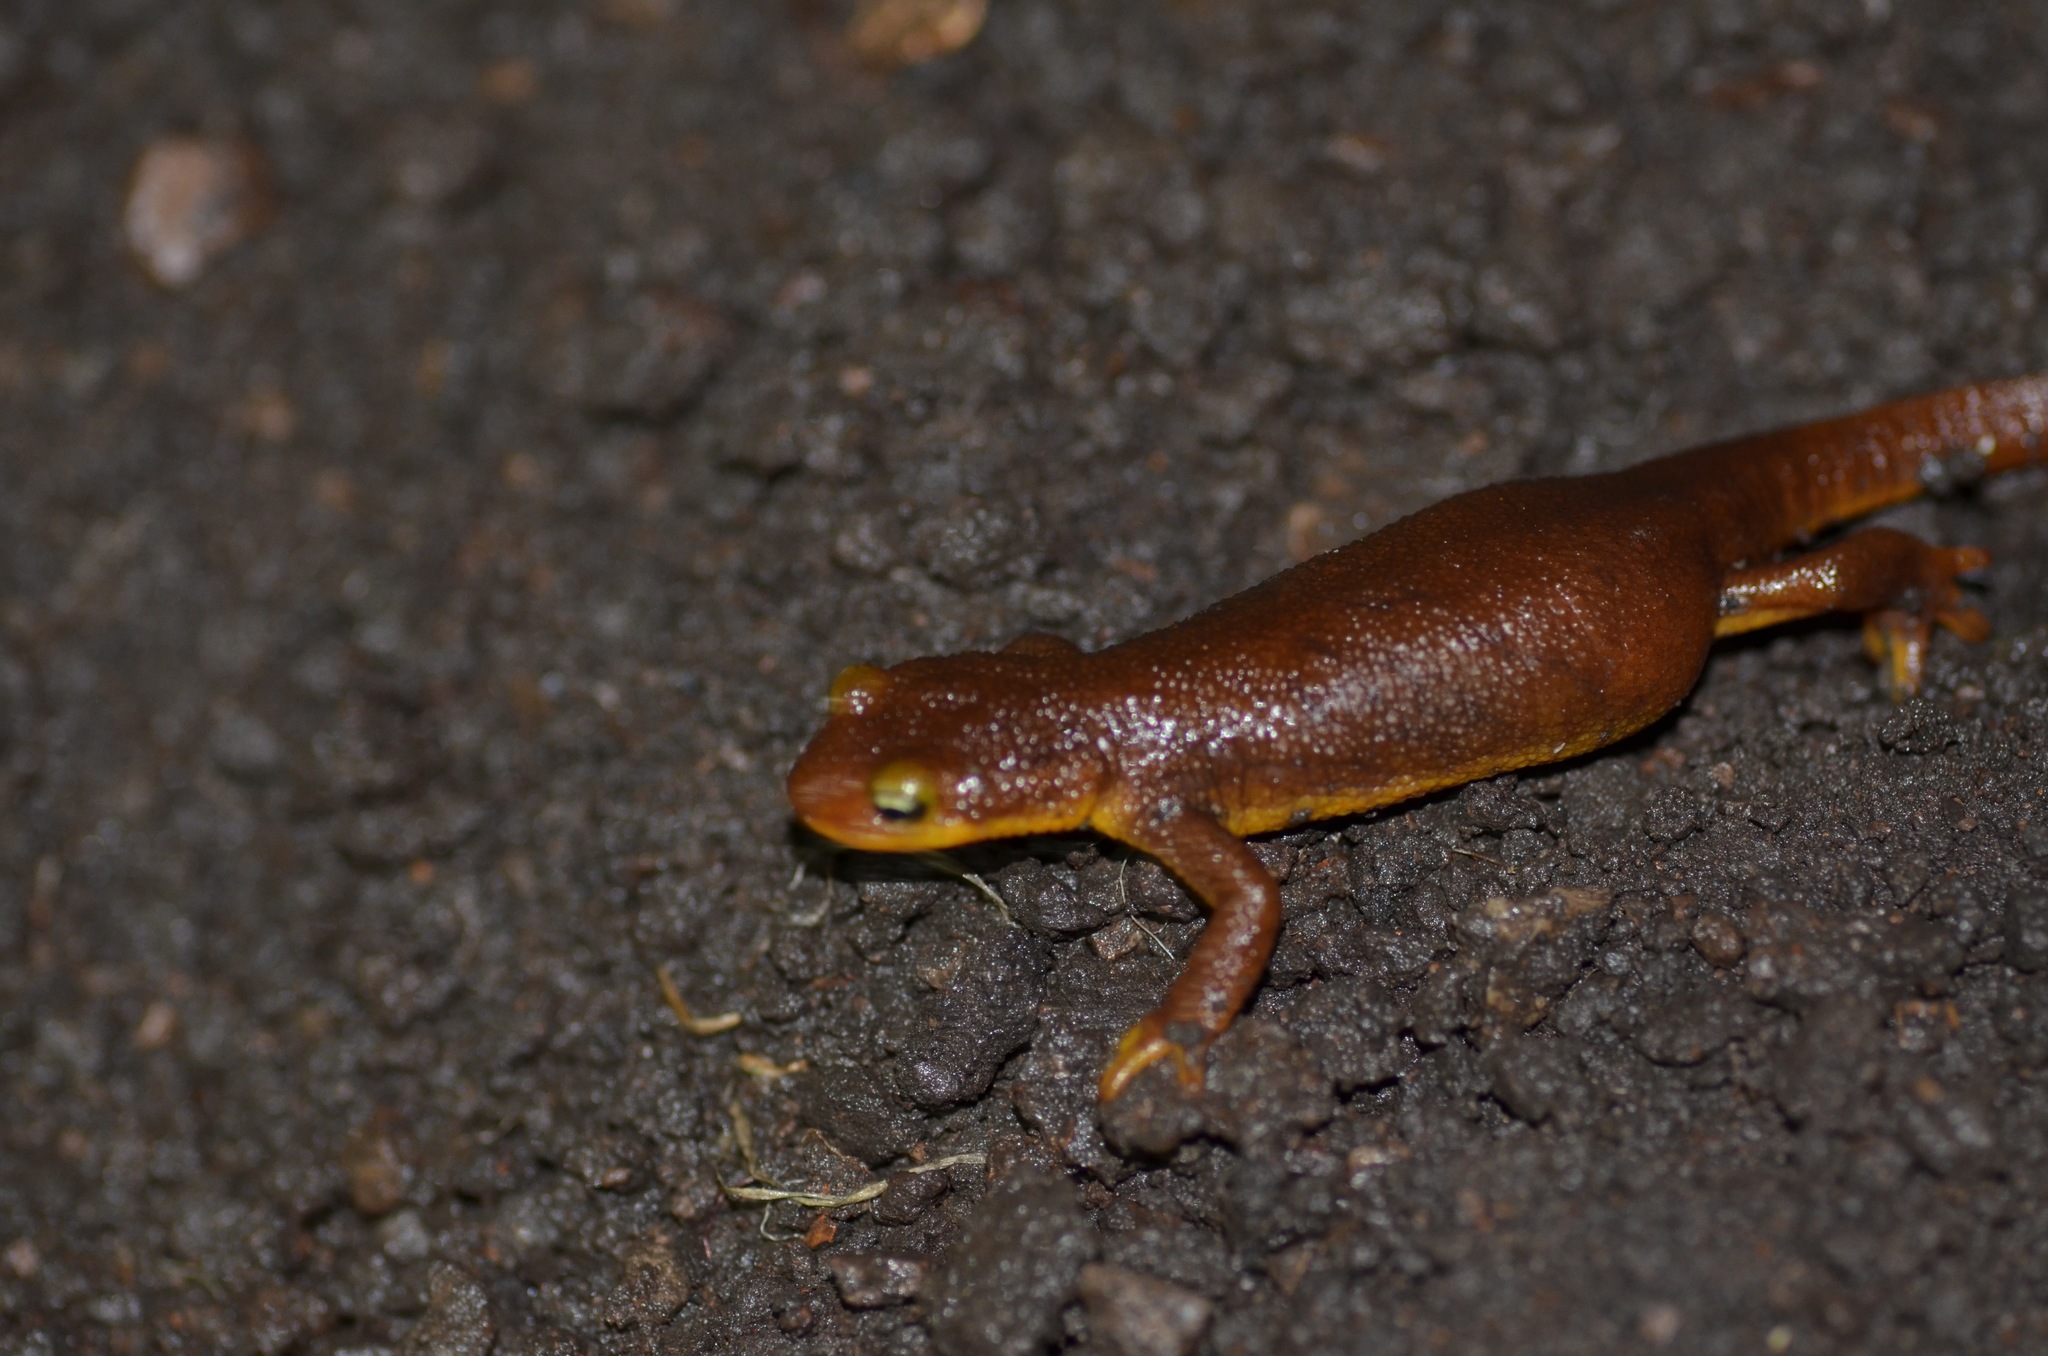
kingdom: Animalia
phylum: Chordata
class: Amphibia
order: Caudata
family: Salamandridae
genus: Taricha
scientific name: Taricha torosa
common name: California newt
